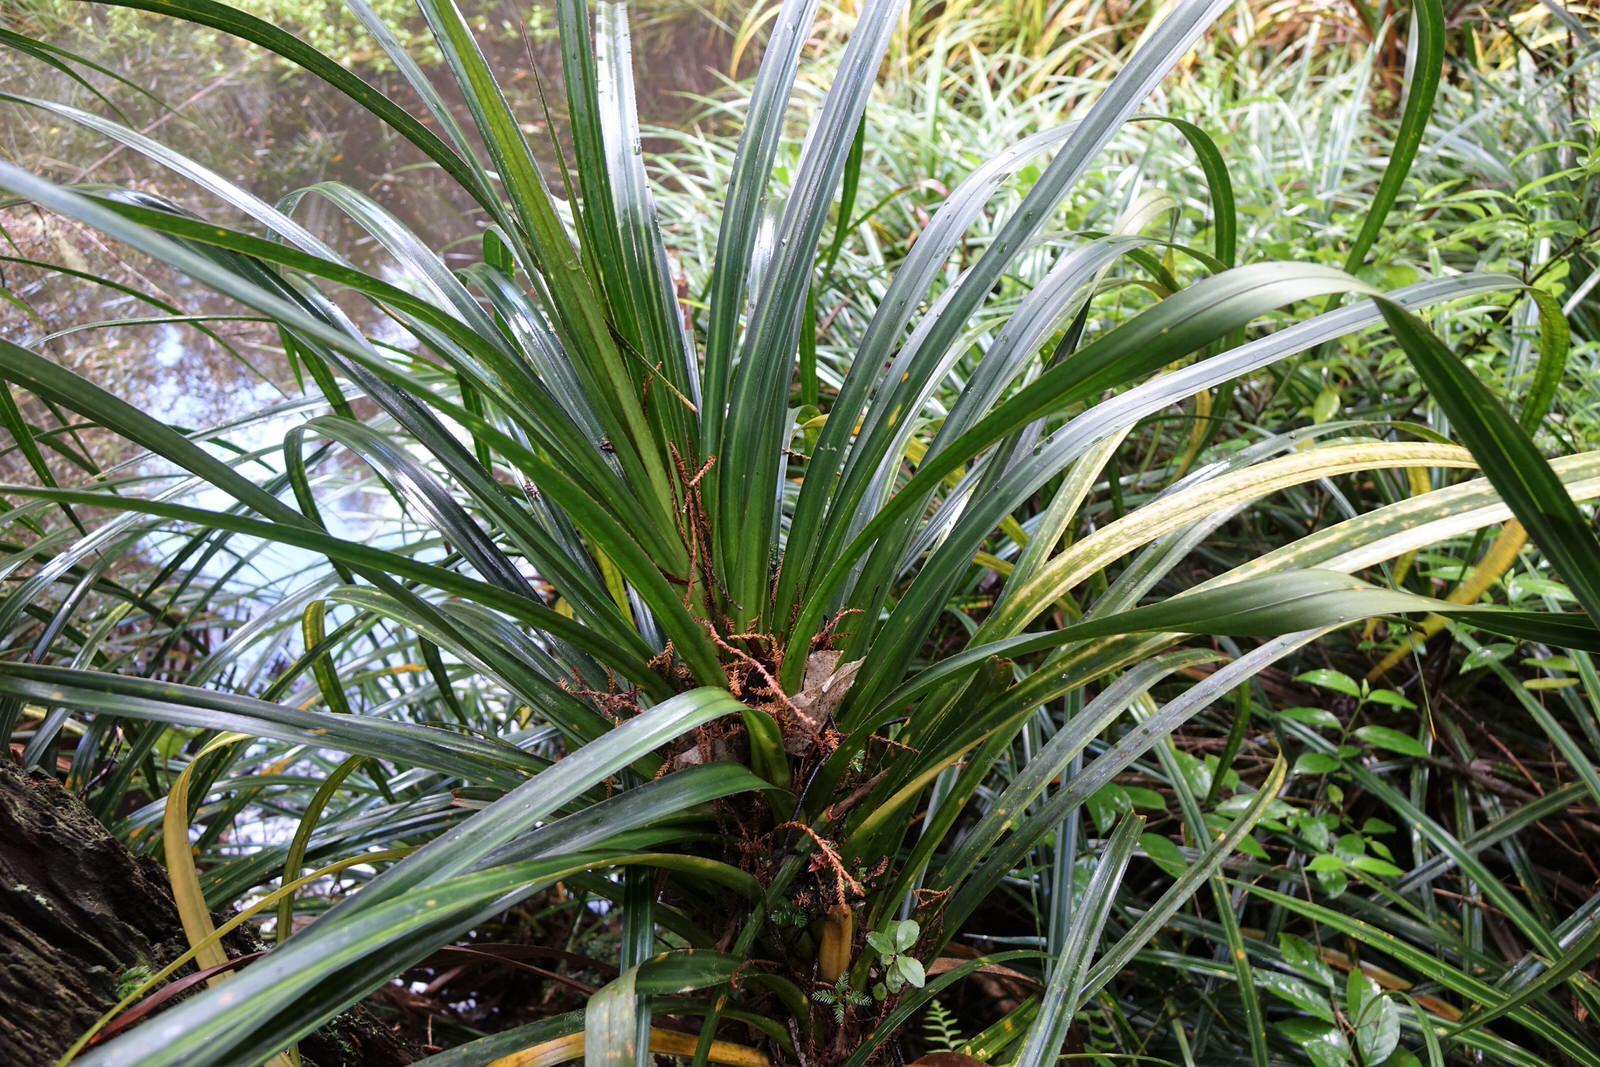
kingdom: Plantae
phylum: Tracheophyta
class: Liliopsida
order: Pandanales
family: Pandanaceae
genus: Freycinetia
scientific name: Freycinetia banksii
